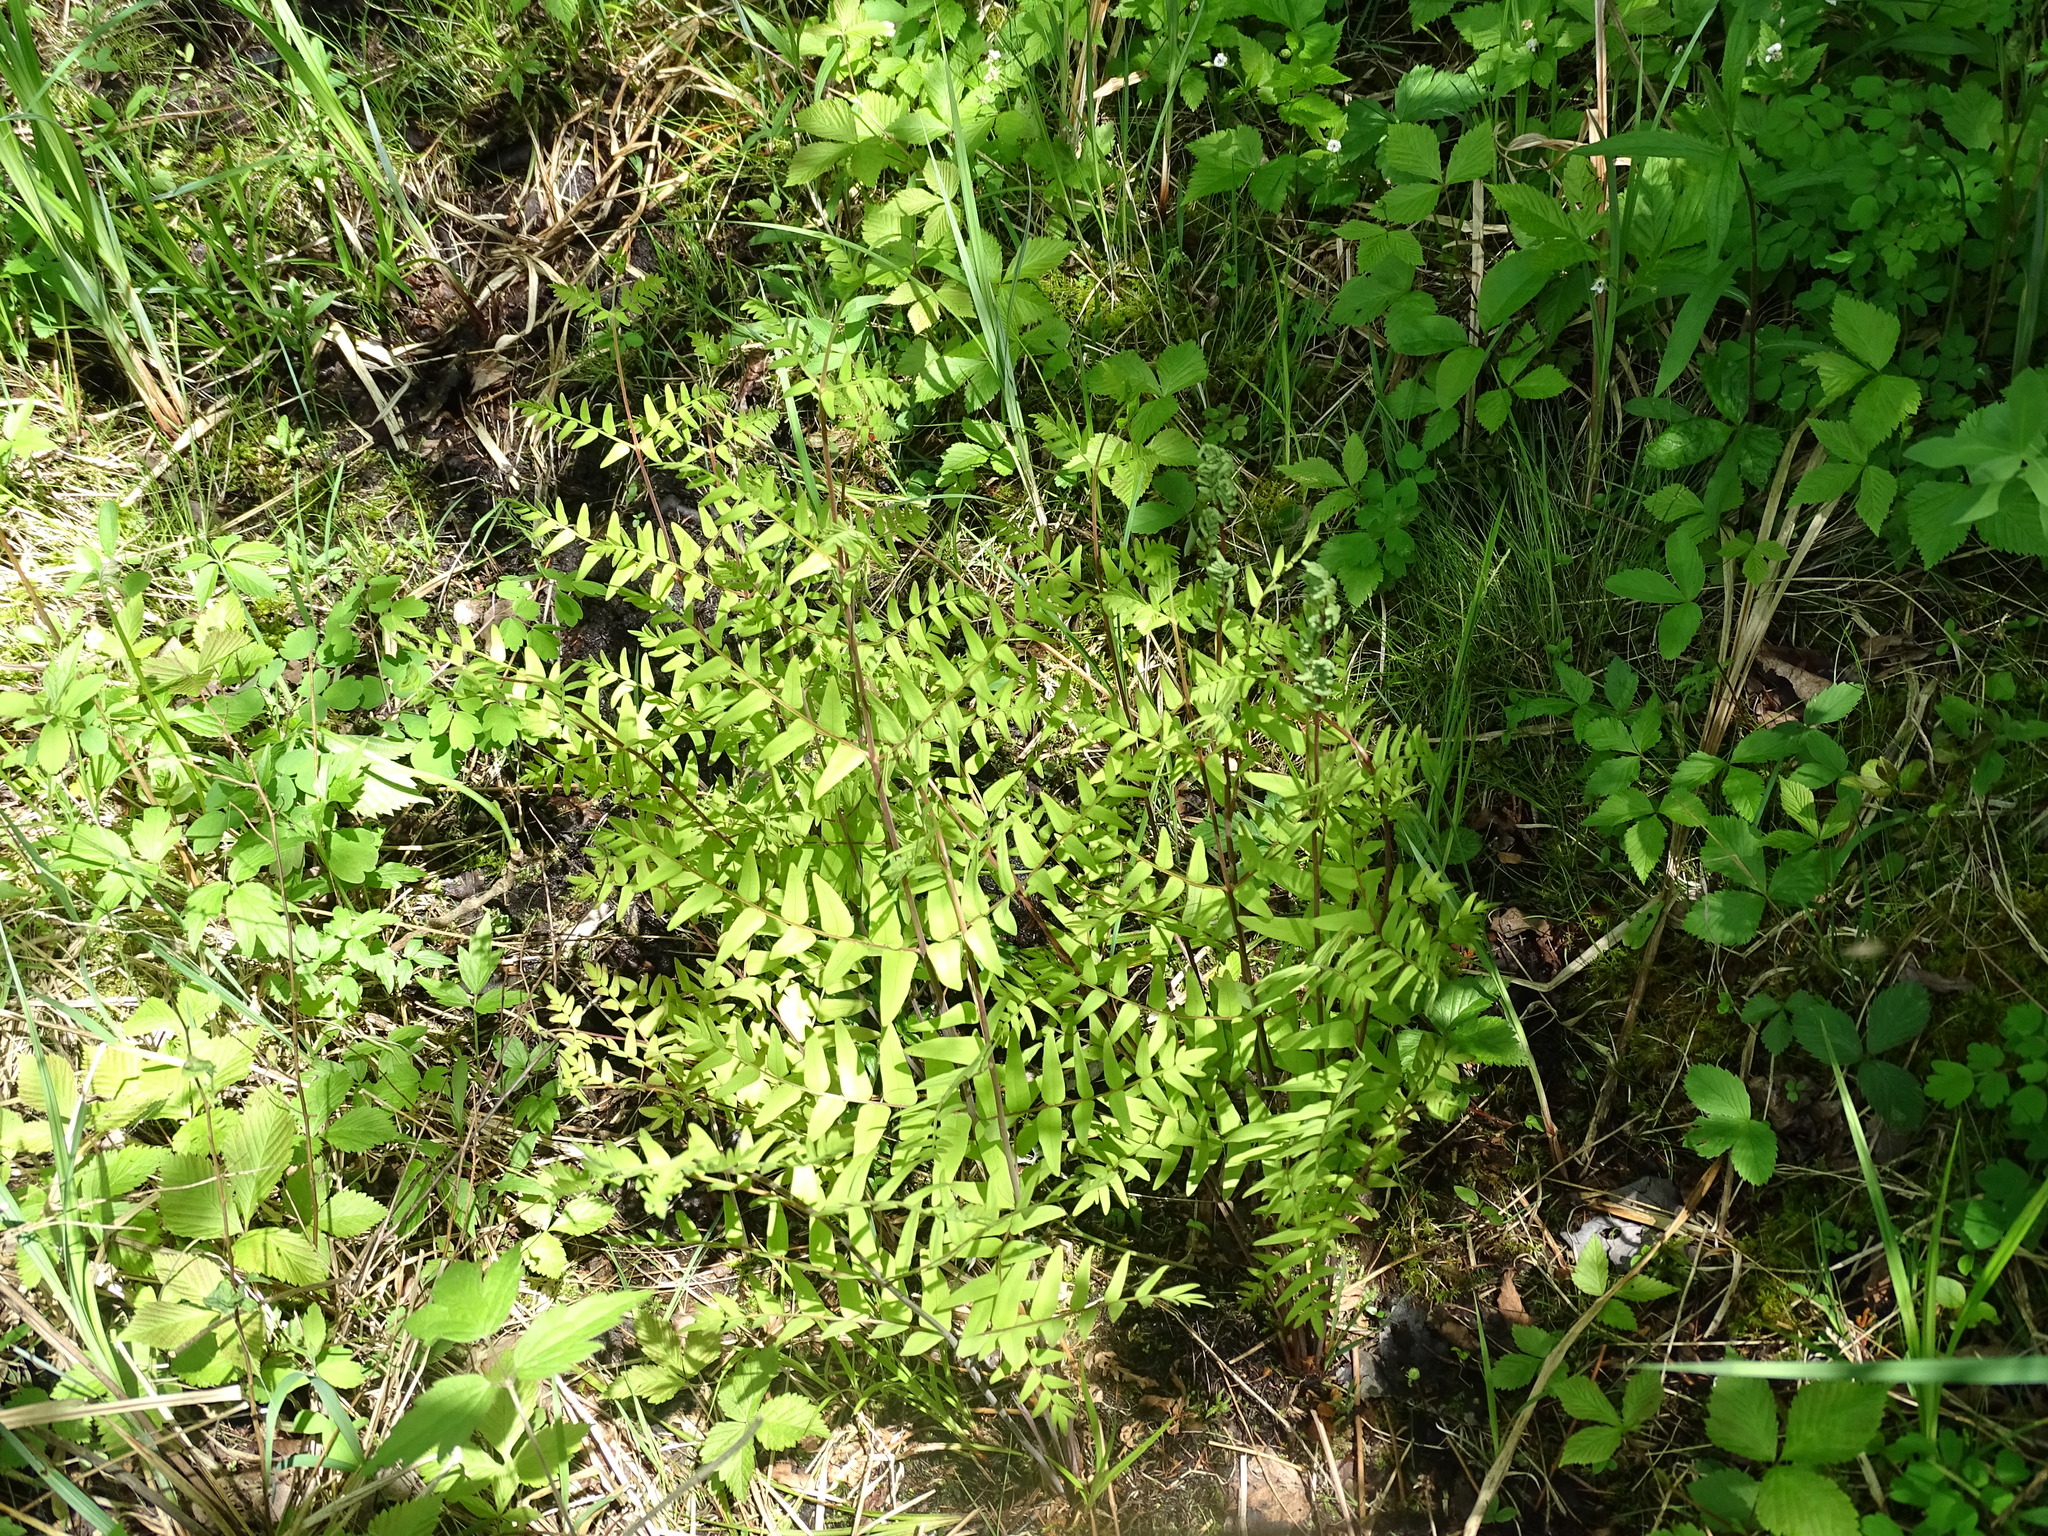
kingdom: Plantae
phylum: Tracheophyta
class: Polypodiopsida
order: Osmundales
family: Osmundaceae
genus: Osmunda
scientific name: Osmunda spectabilis
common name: American royal fern
